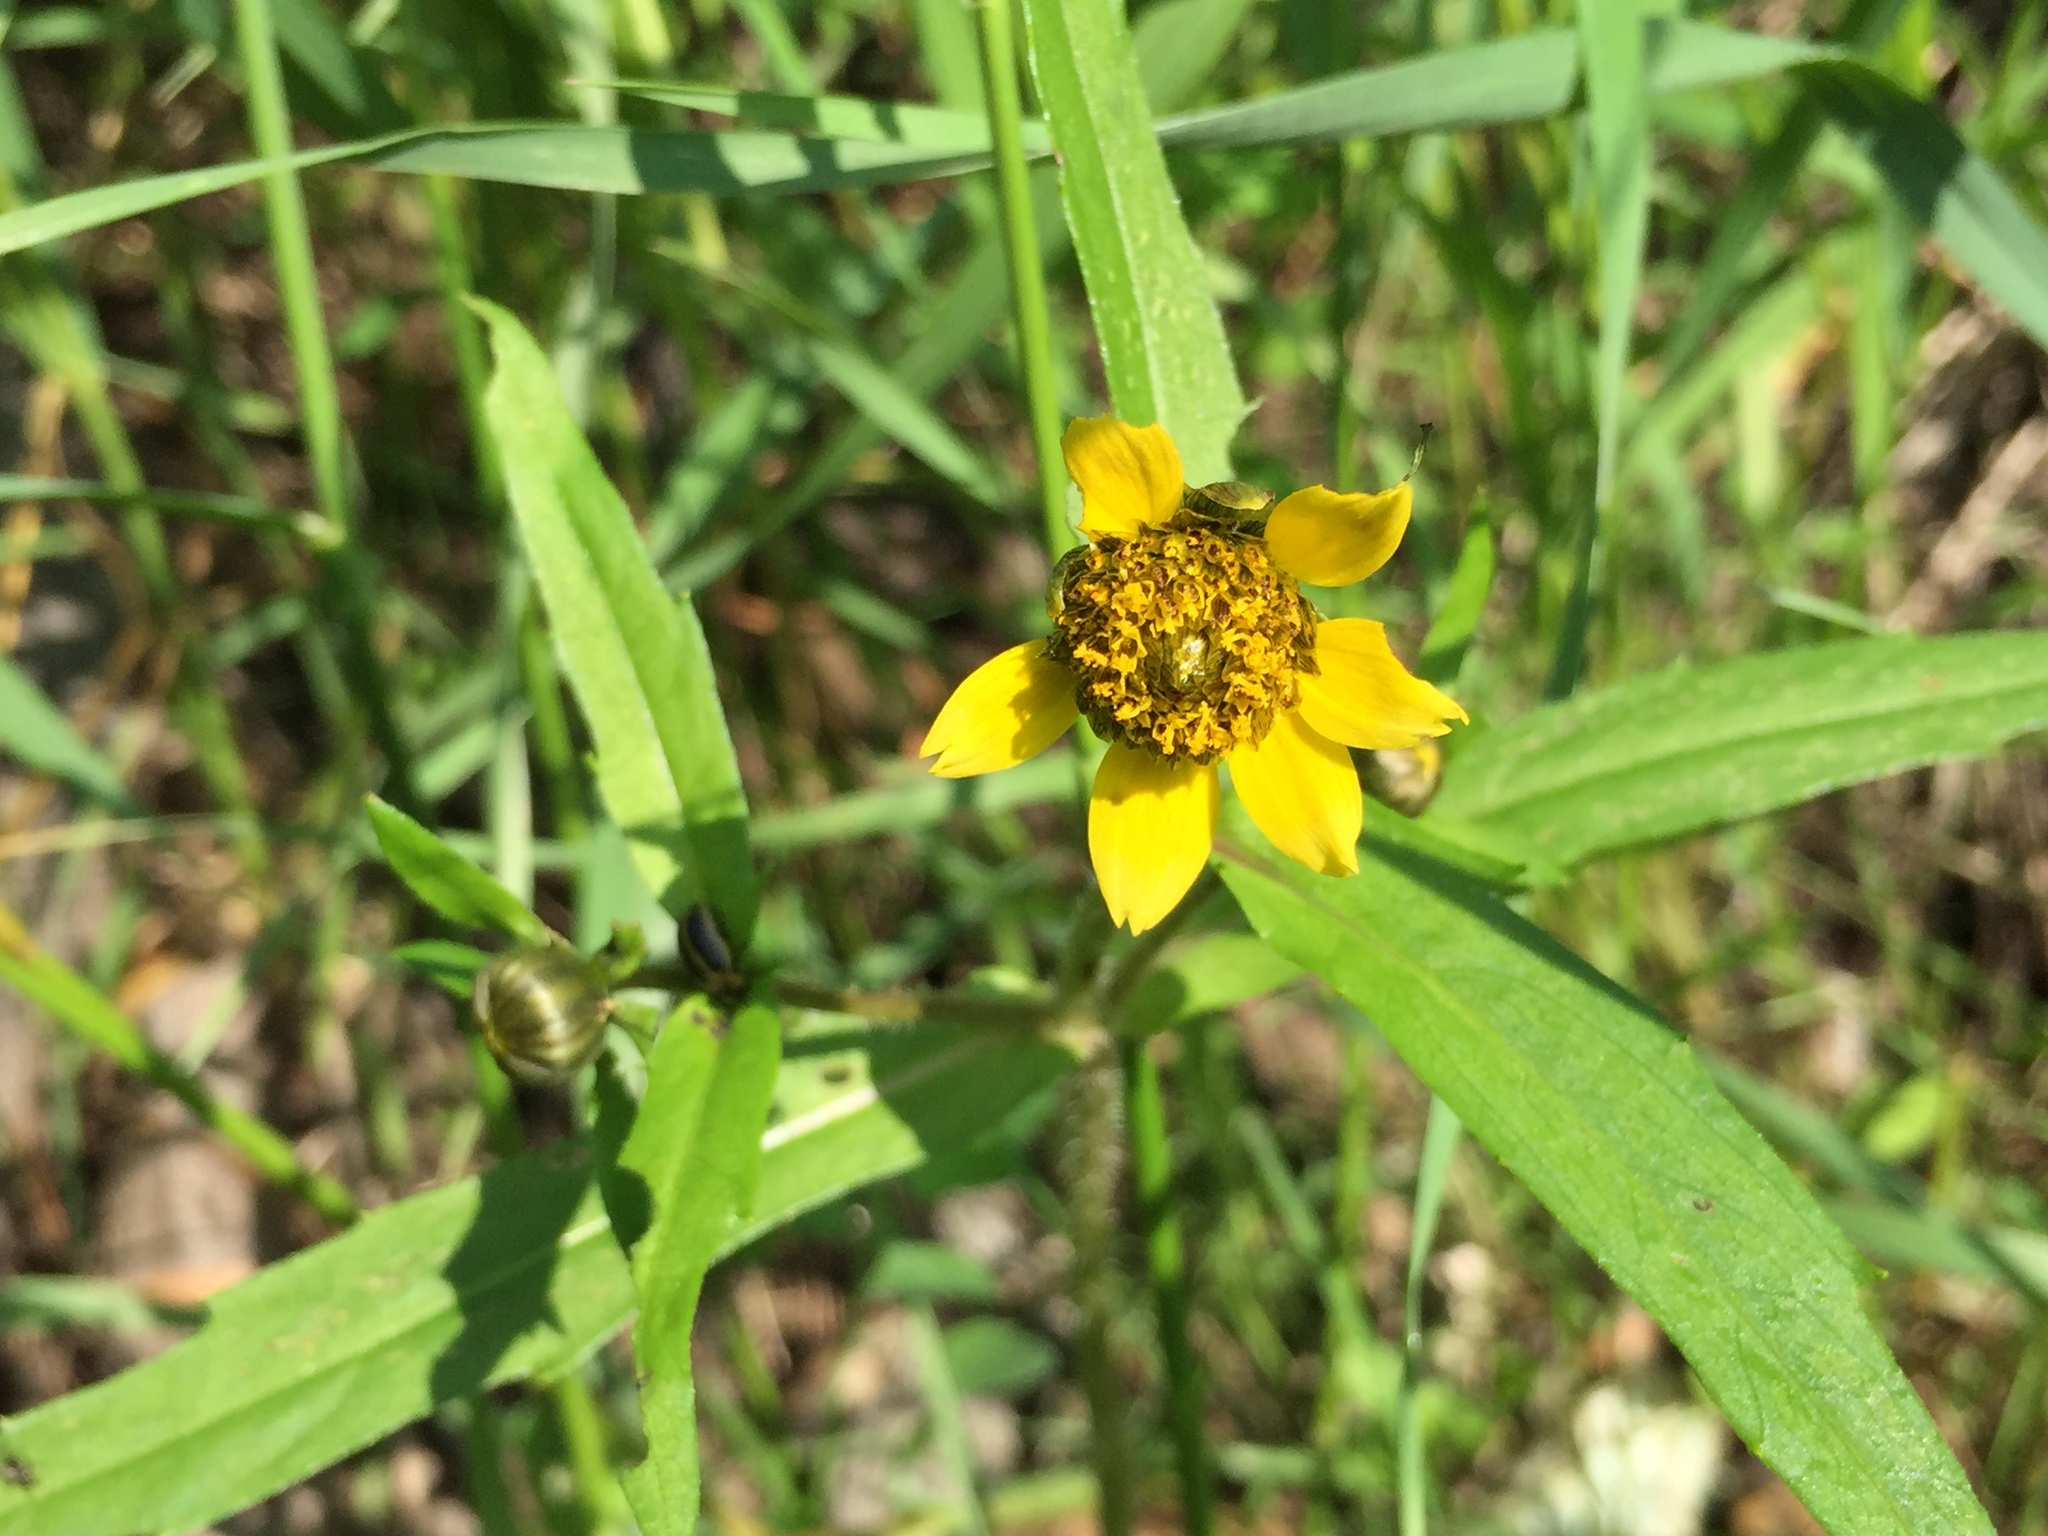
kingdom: Plantae
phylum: Tracheophyta
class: Magnoliopsida
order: Asterales
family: Asteraceae
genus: Bidens
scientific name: Bidens cernua
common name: Nodding bur-marigold
